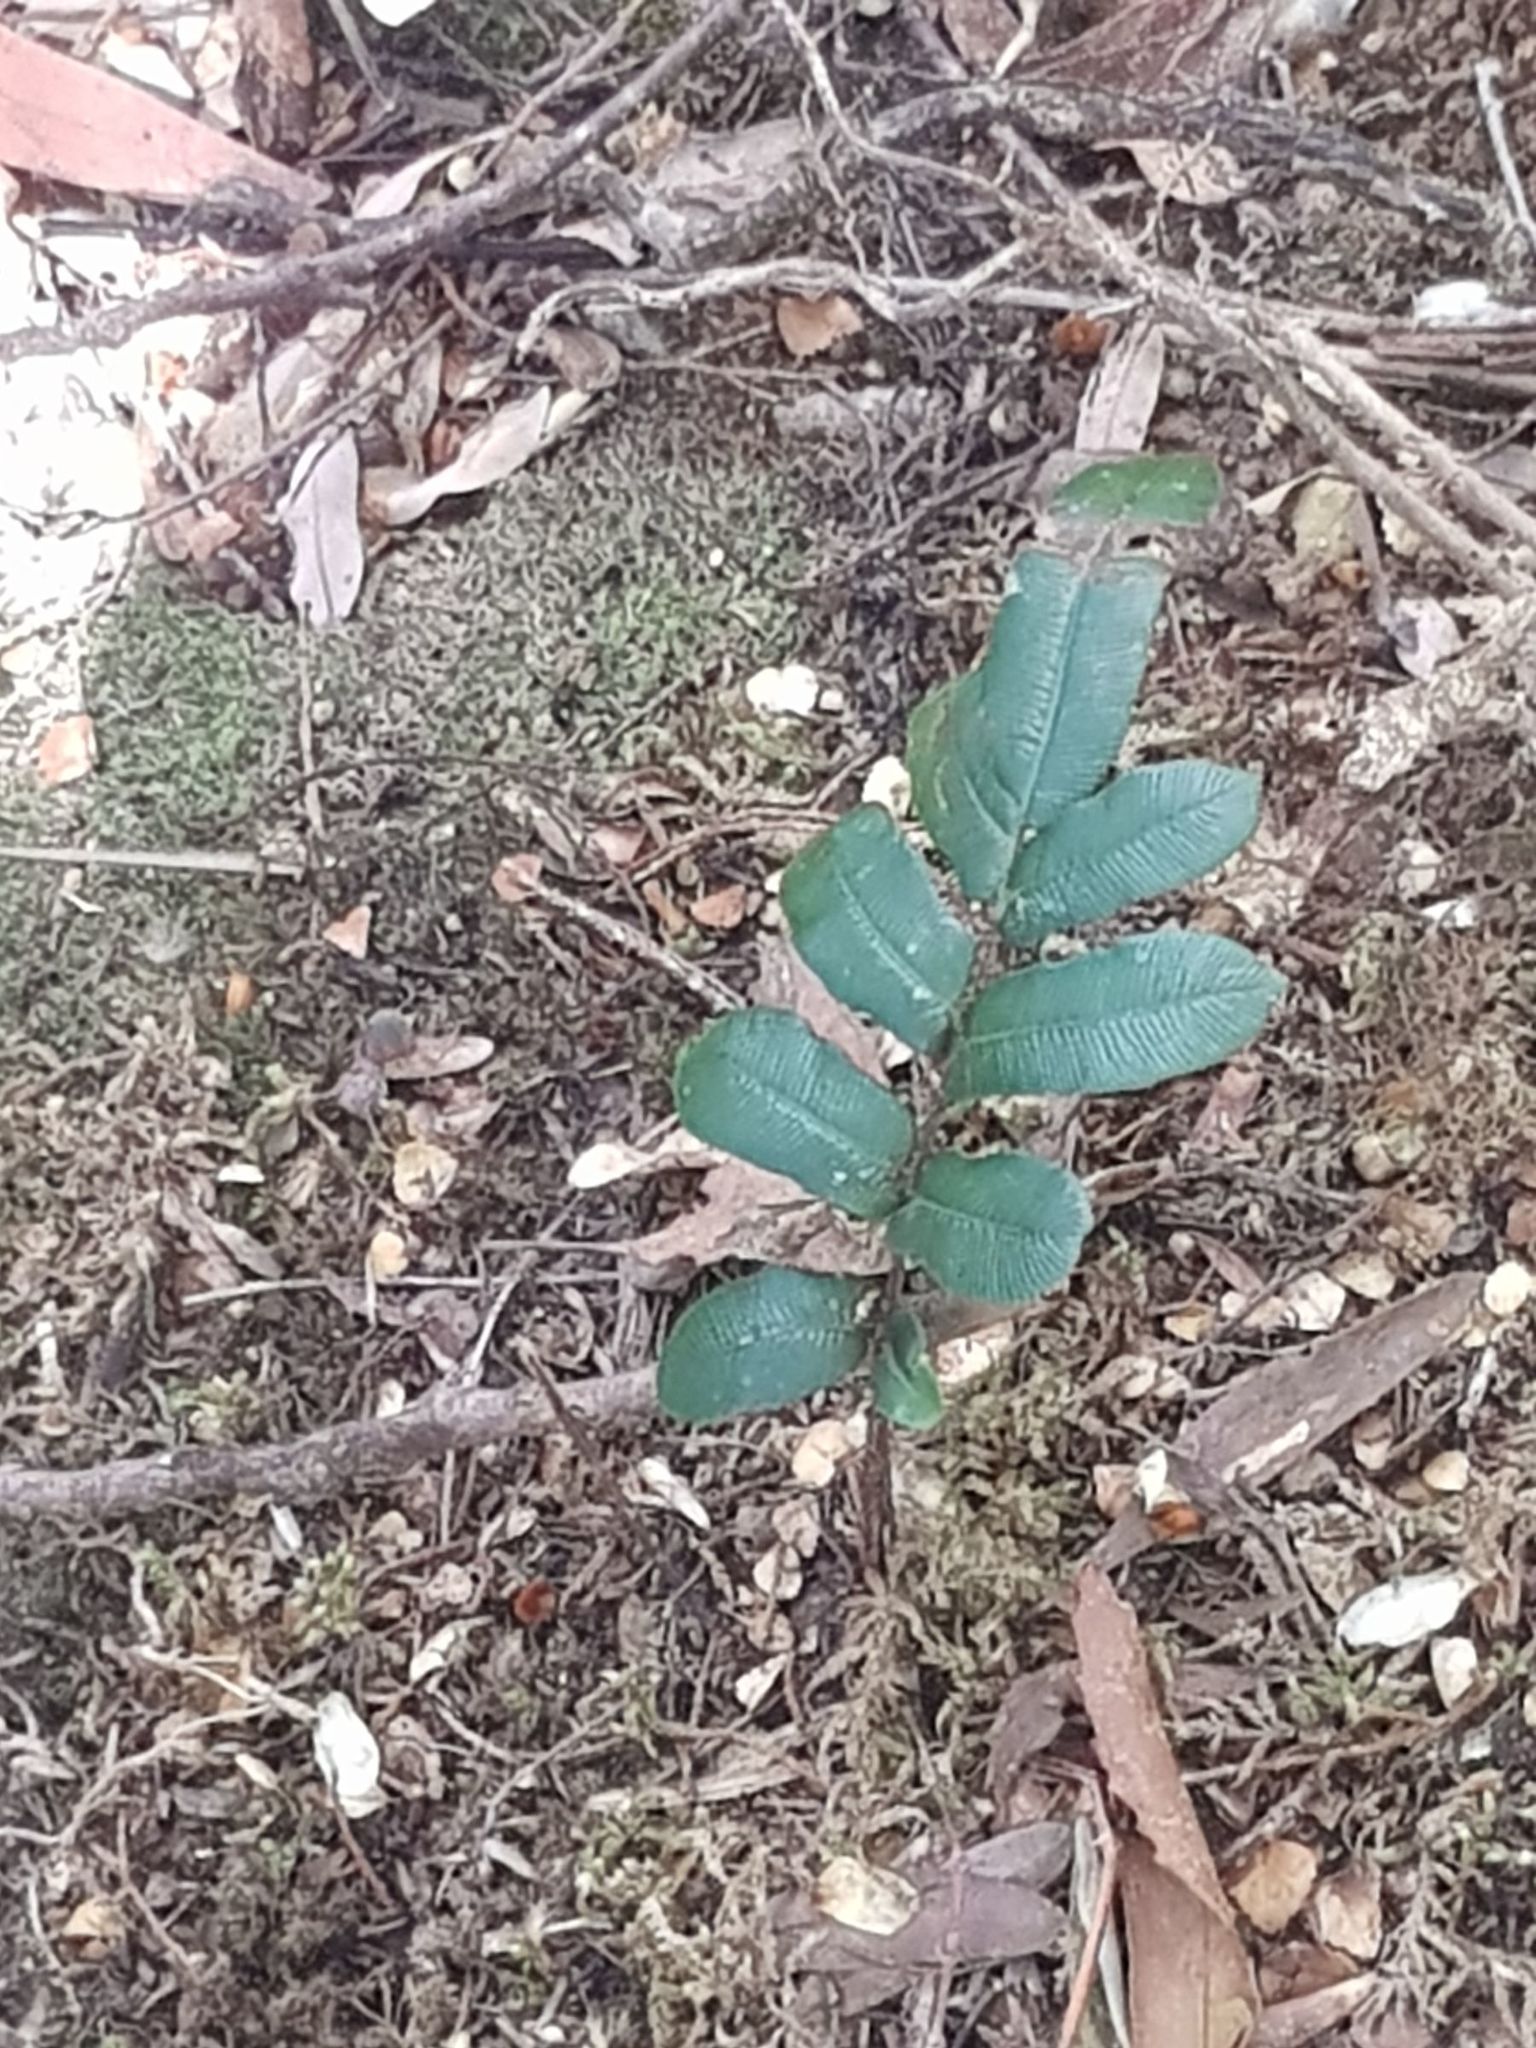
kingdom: Plantae
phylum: Tracheophyta
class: Polypodiopsida
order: Polypodiales
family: Blechnaceae
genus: Parablechnum
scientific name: Parablechnum wattsii
